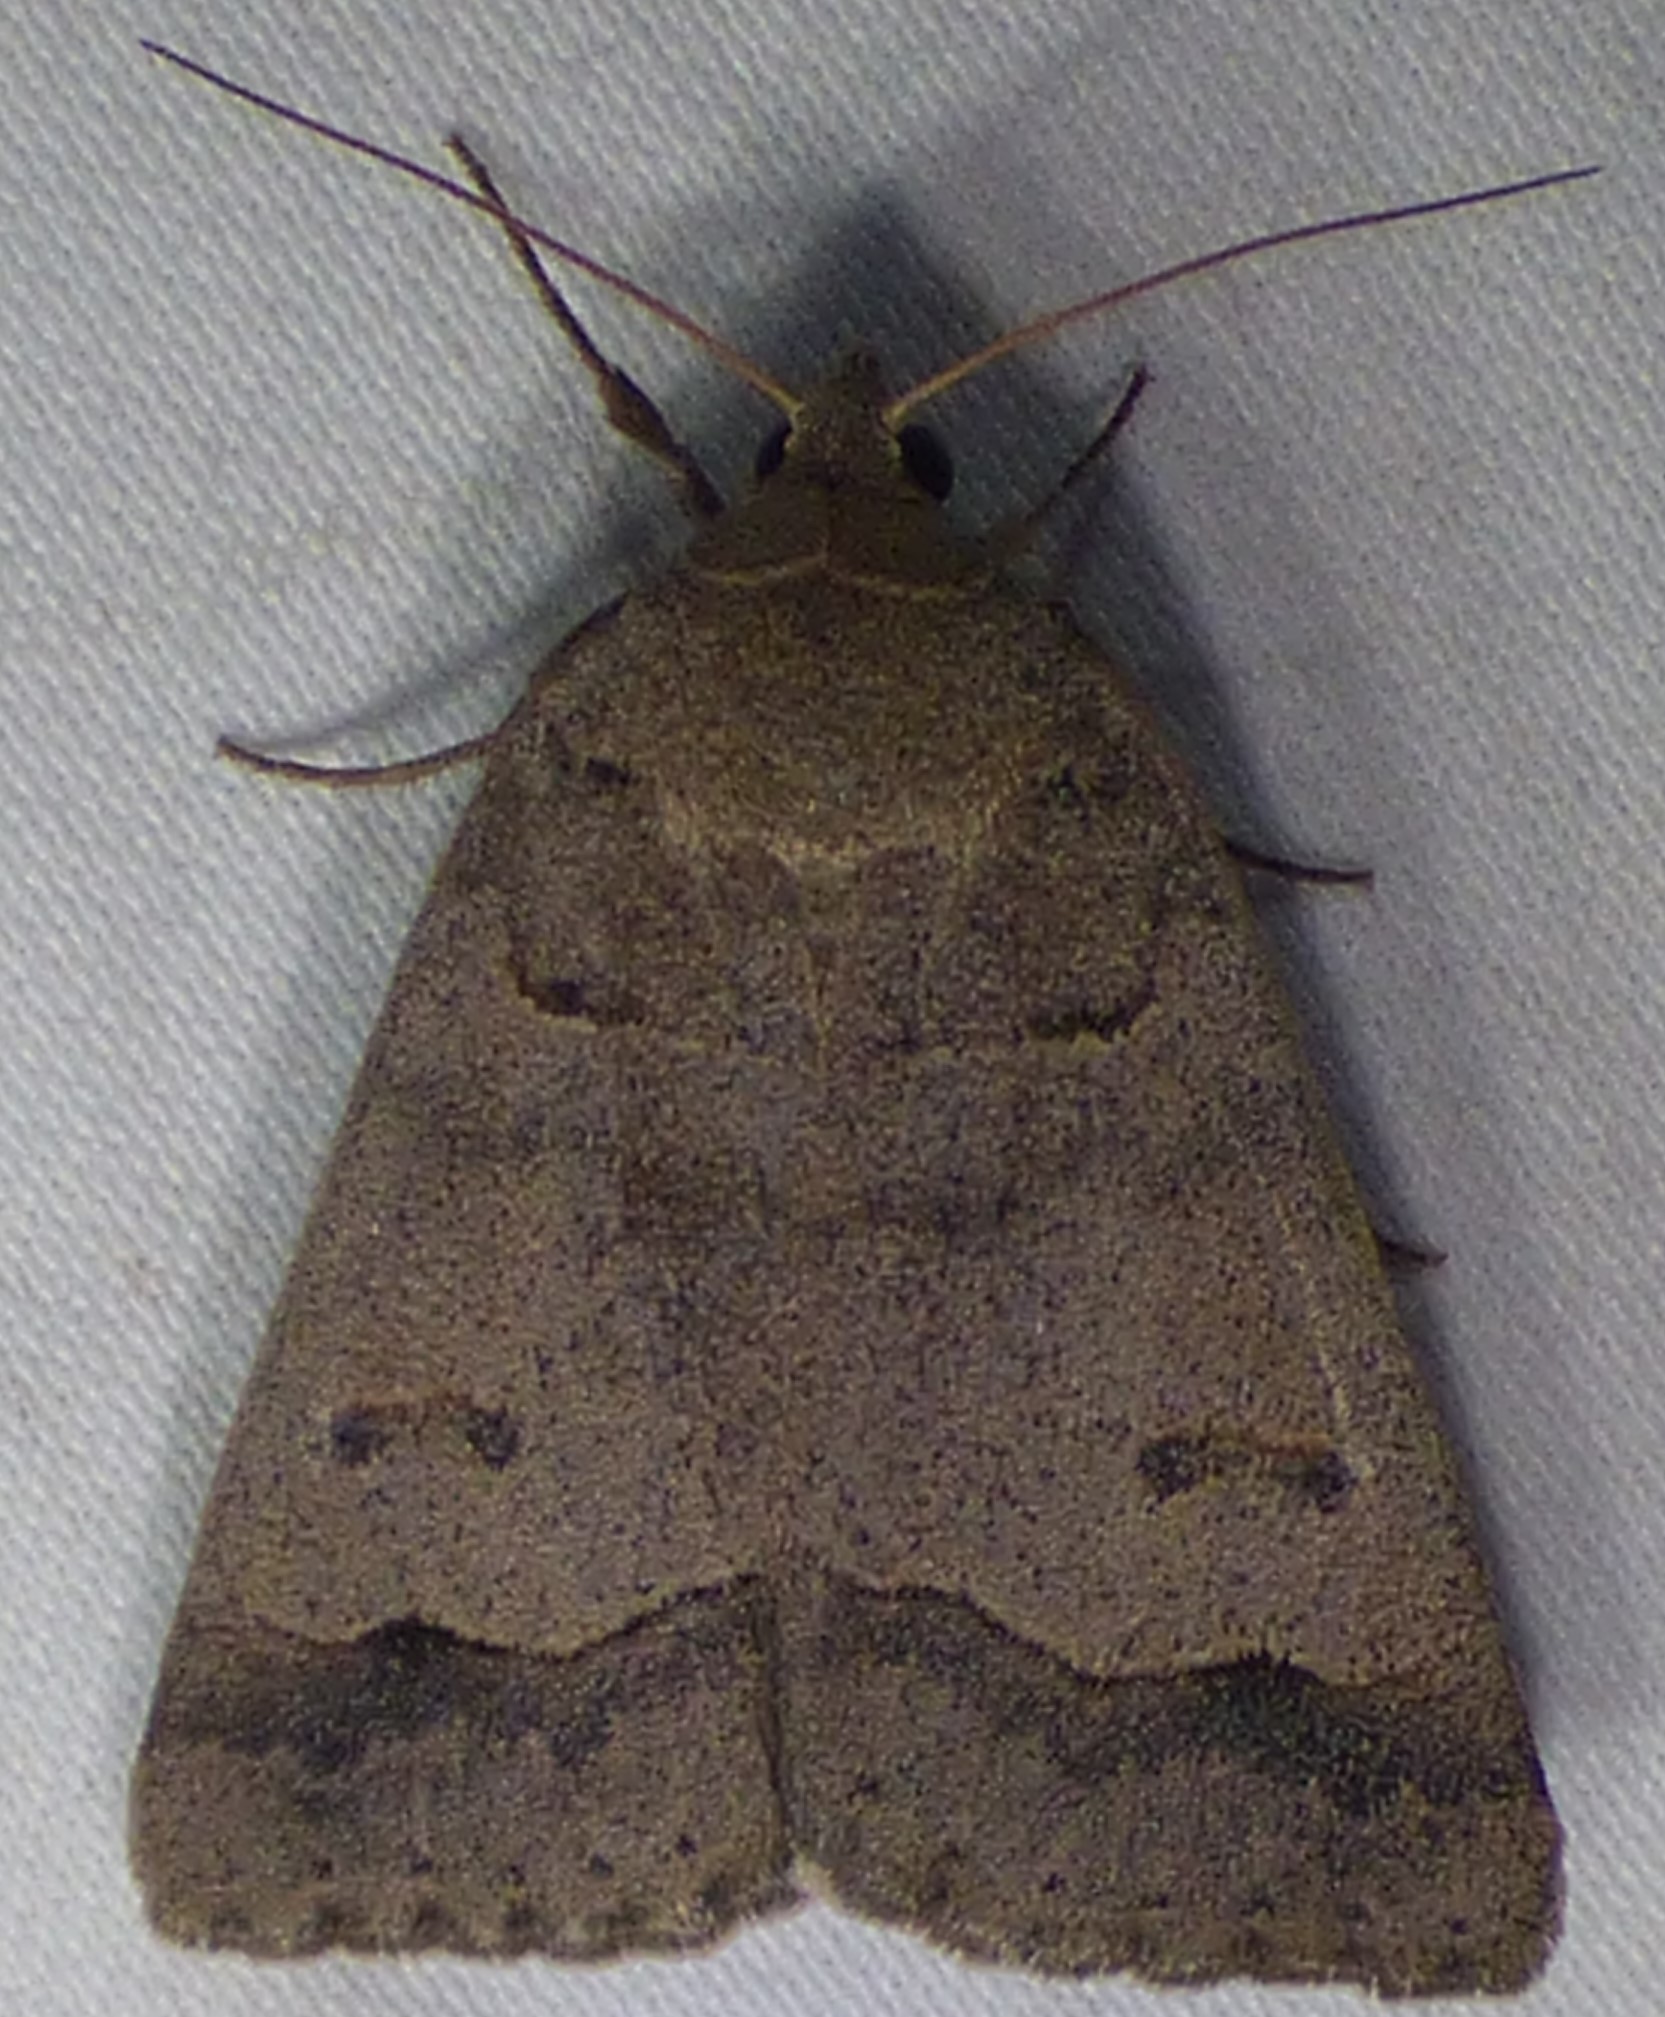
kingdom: Animalia
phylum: Arthropoda
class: Insecta
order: Lepidoptera
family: Erebidae
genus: Phoberia
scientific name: Phoberia atomaris
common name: Common oak moth
